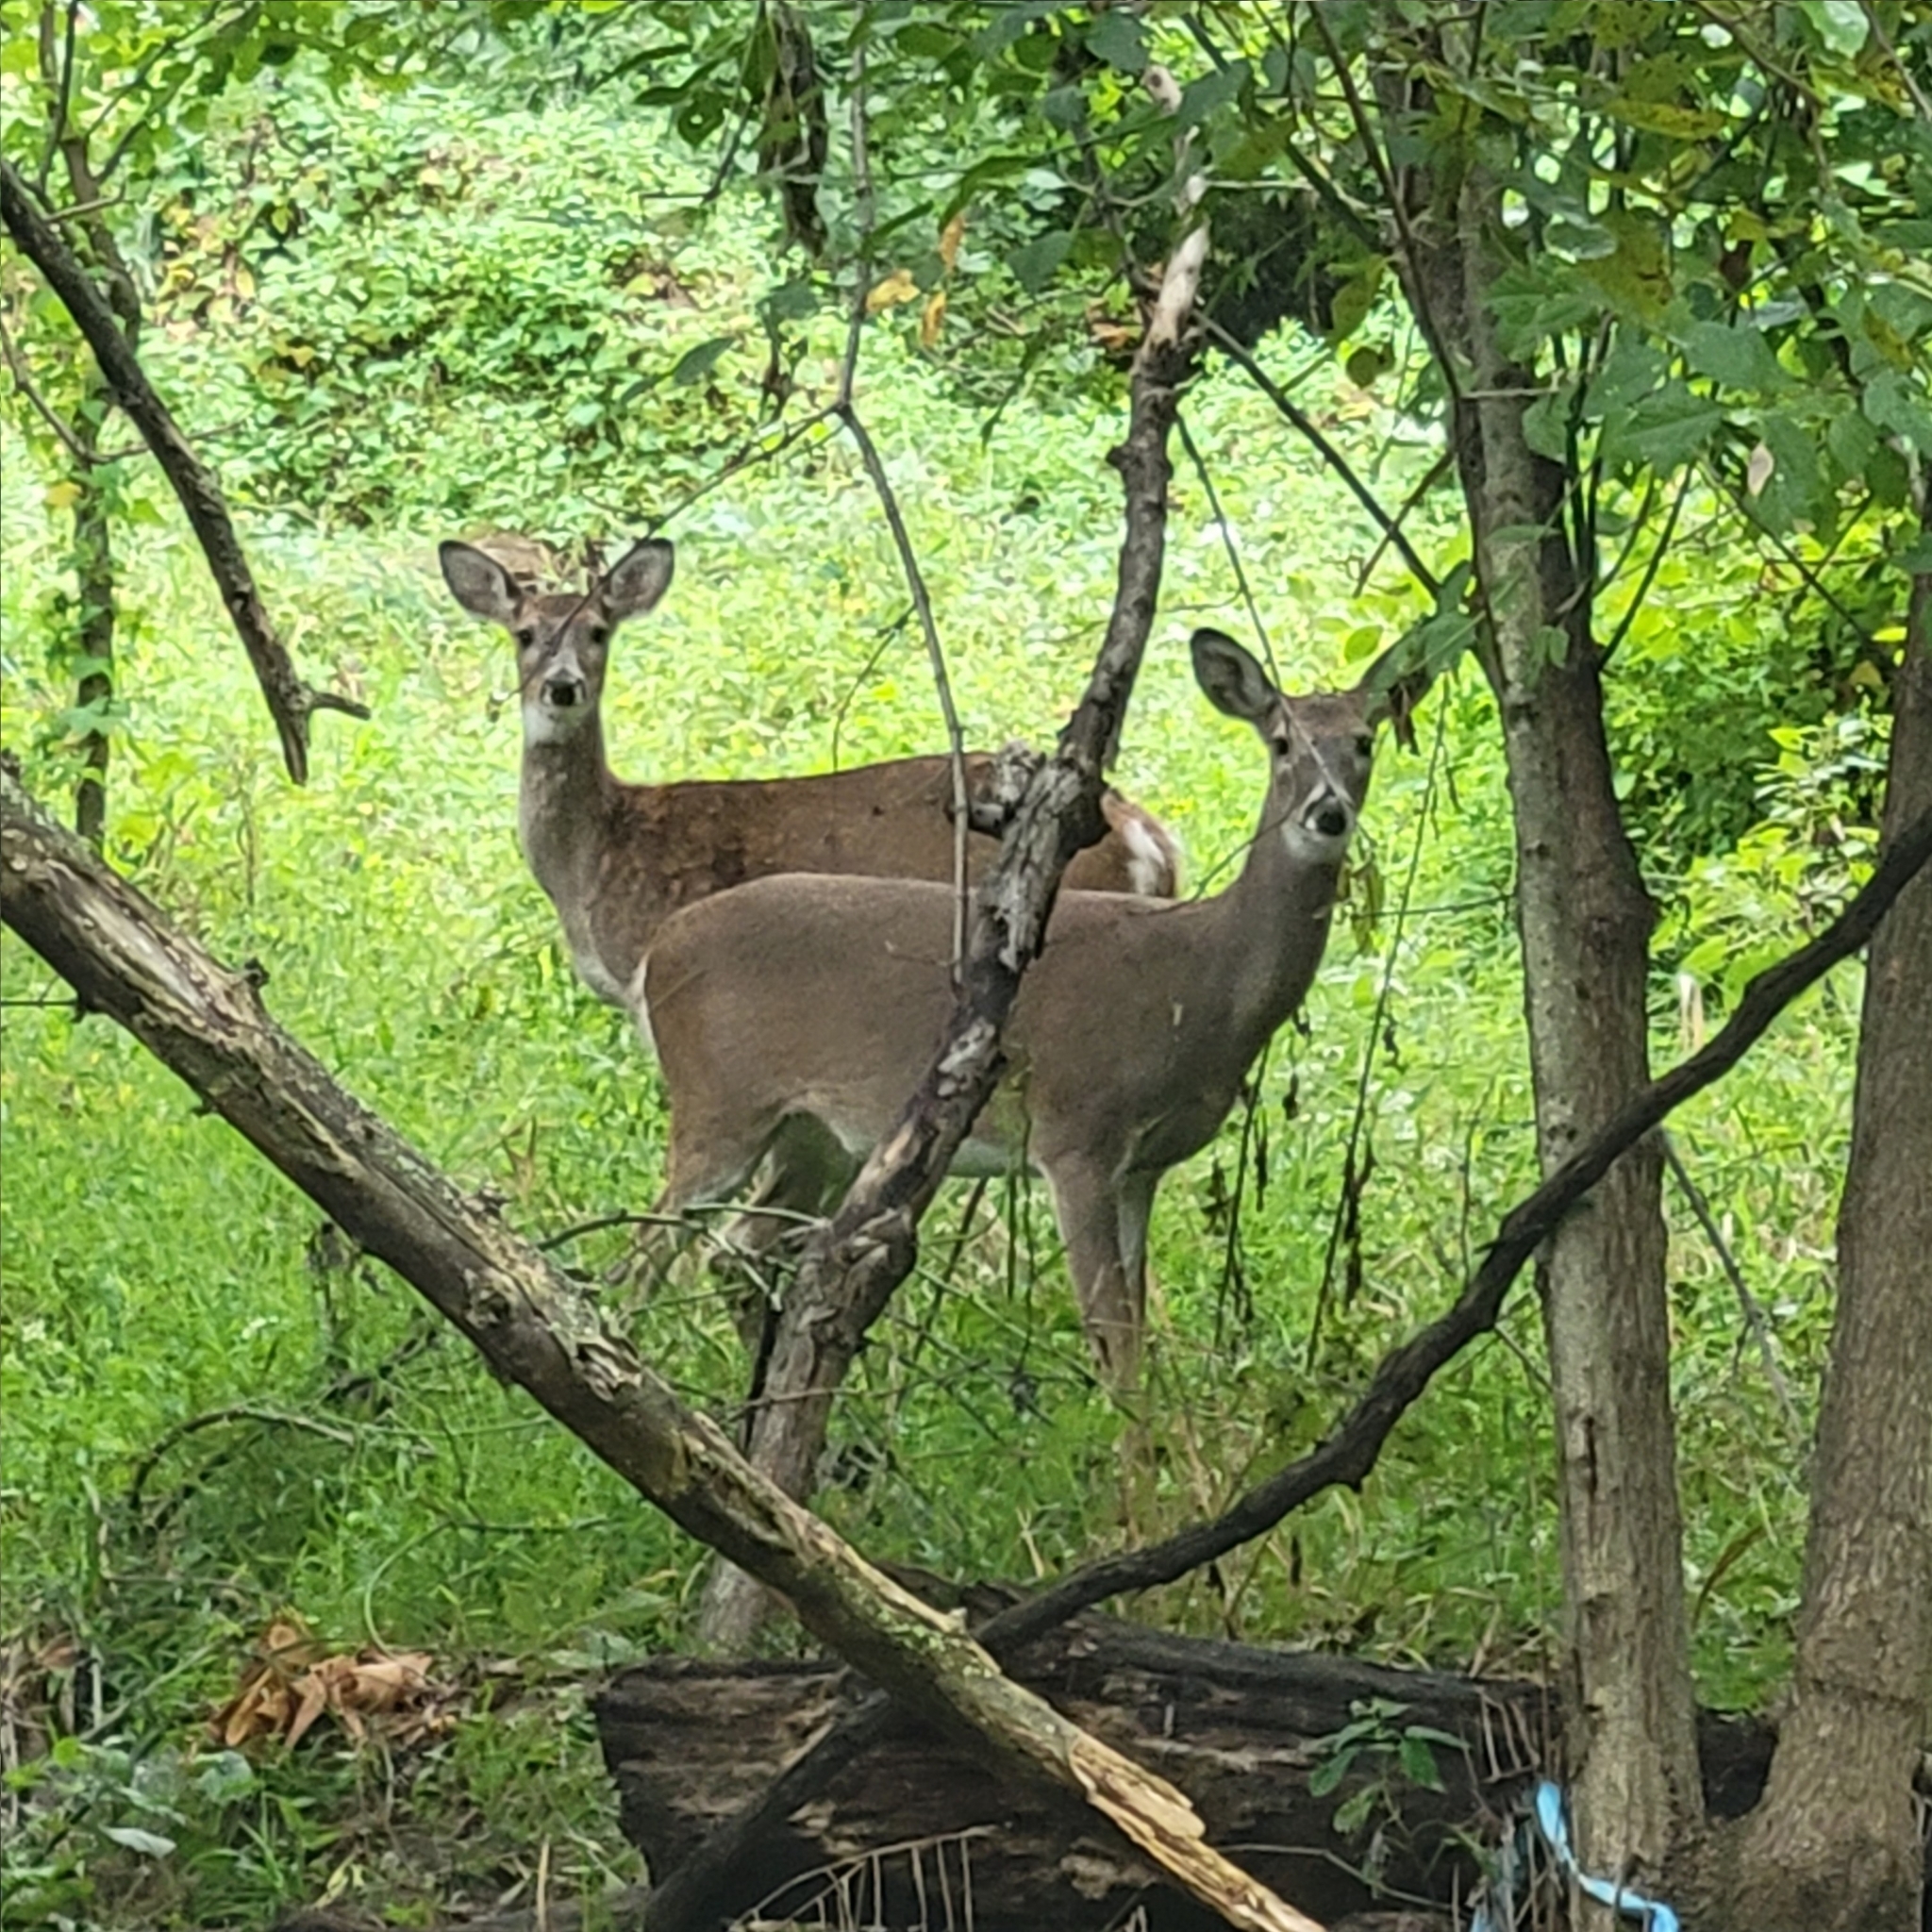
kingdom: Animalia
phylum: Chordata
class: Mammalia
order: Artiodactyla
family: Cervidae
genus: Odocoileus
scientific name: Odocoileus virginianus
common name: White-tailed deer
